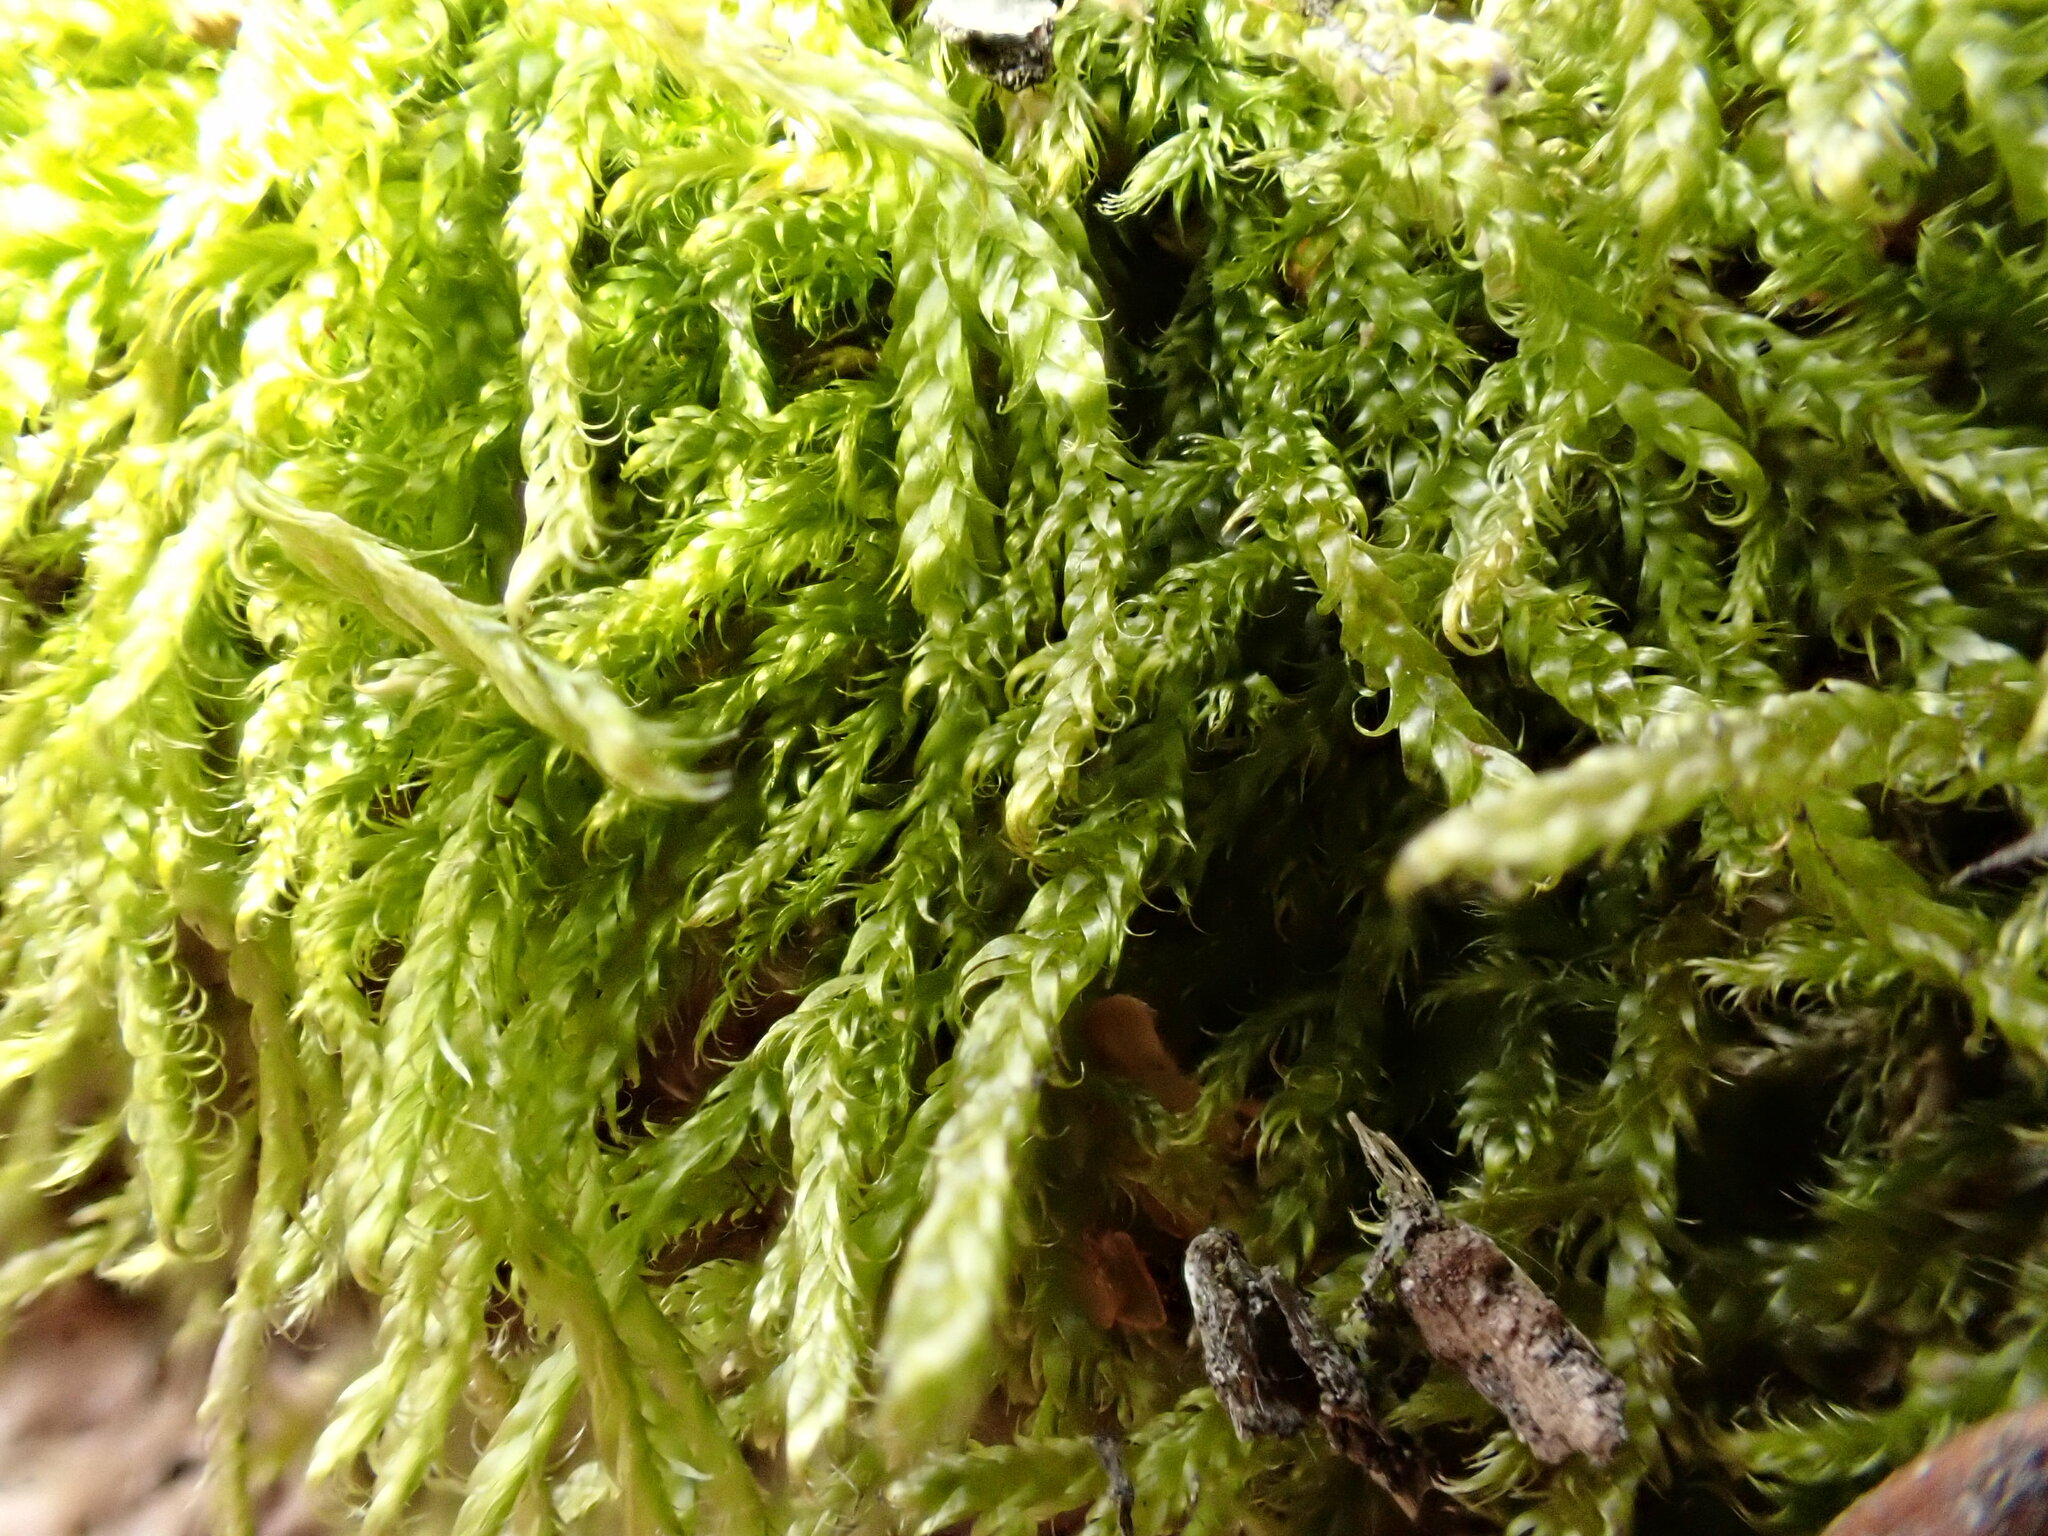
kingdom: Plantae
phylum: Bryophyta
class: Bryopsida
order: Hypnales
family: Hypnaceae
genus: Hypnum
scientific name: Hypnum cupressiforme
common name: Cypress-leaved plait-moss
